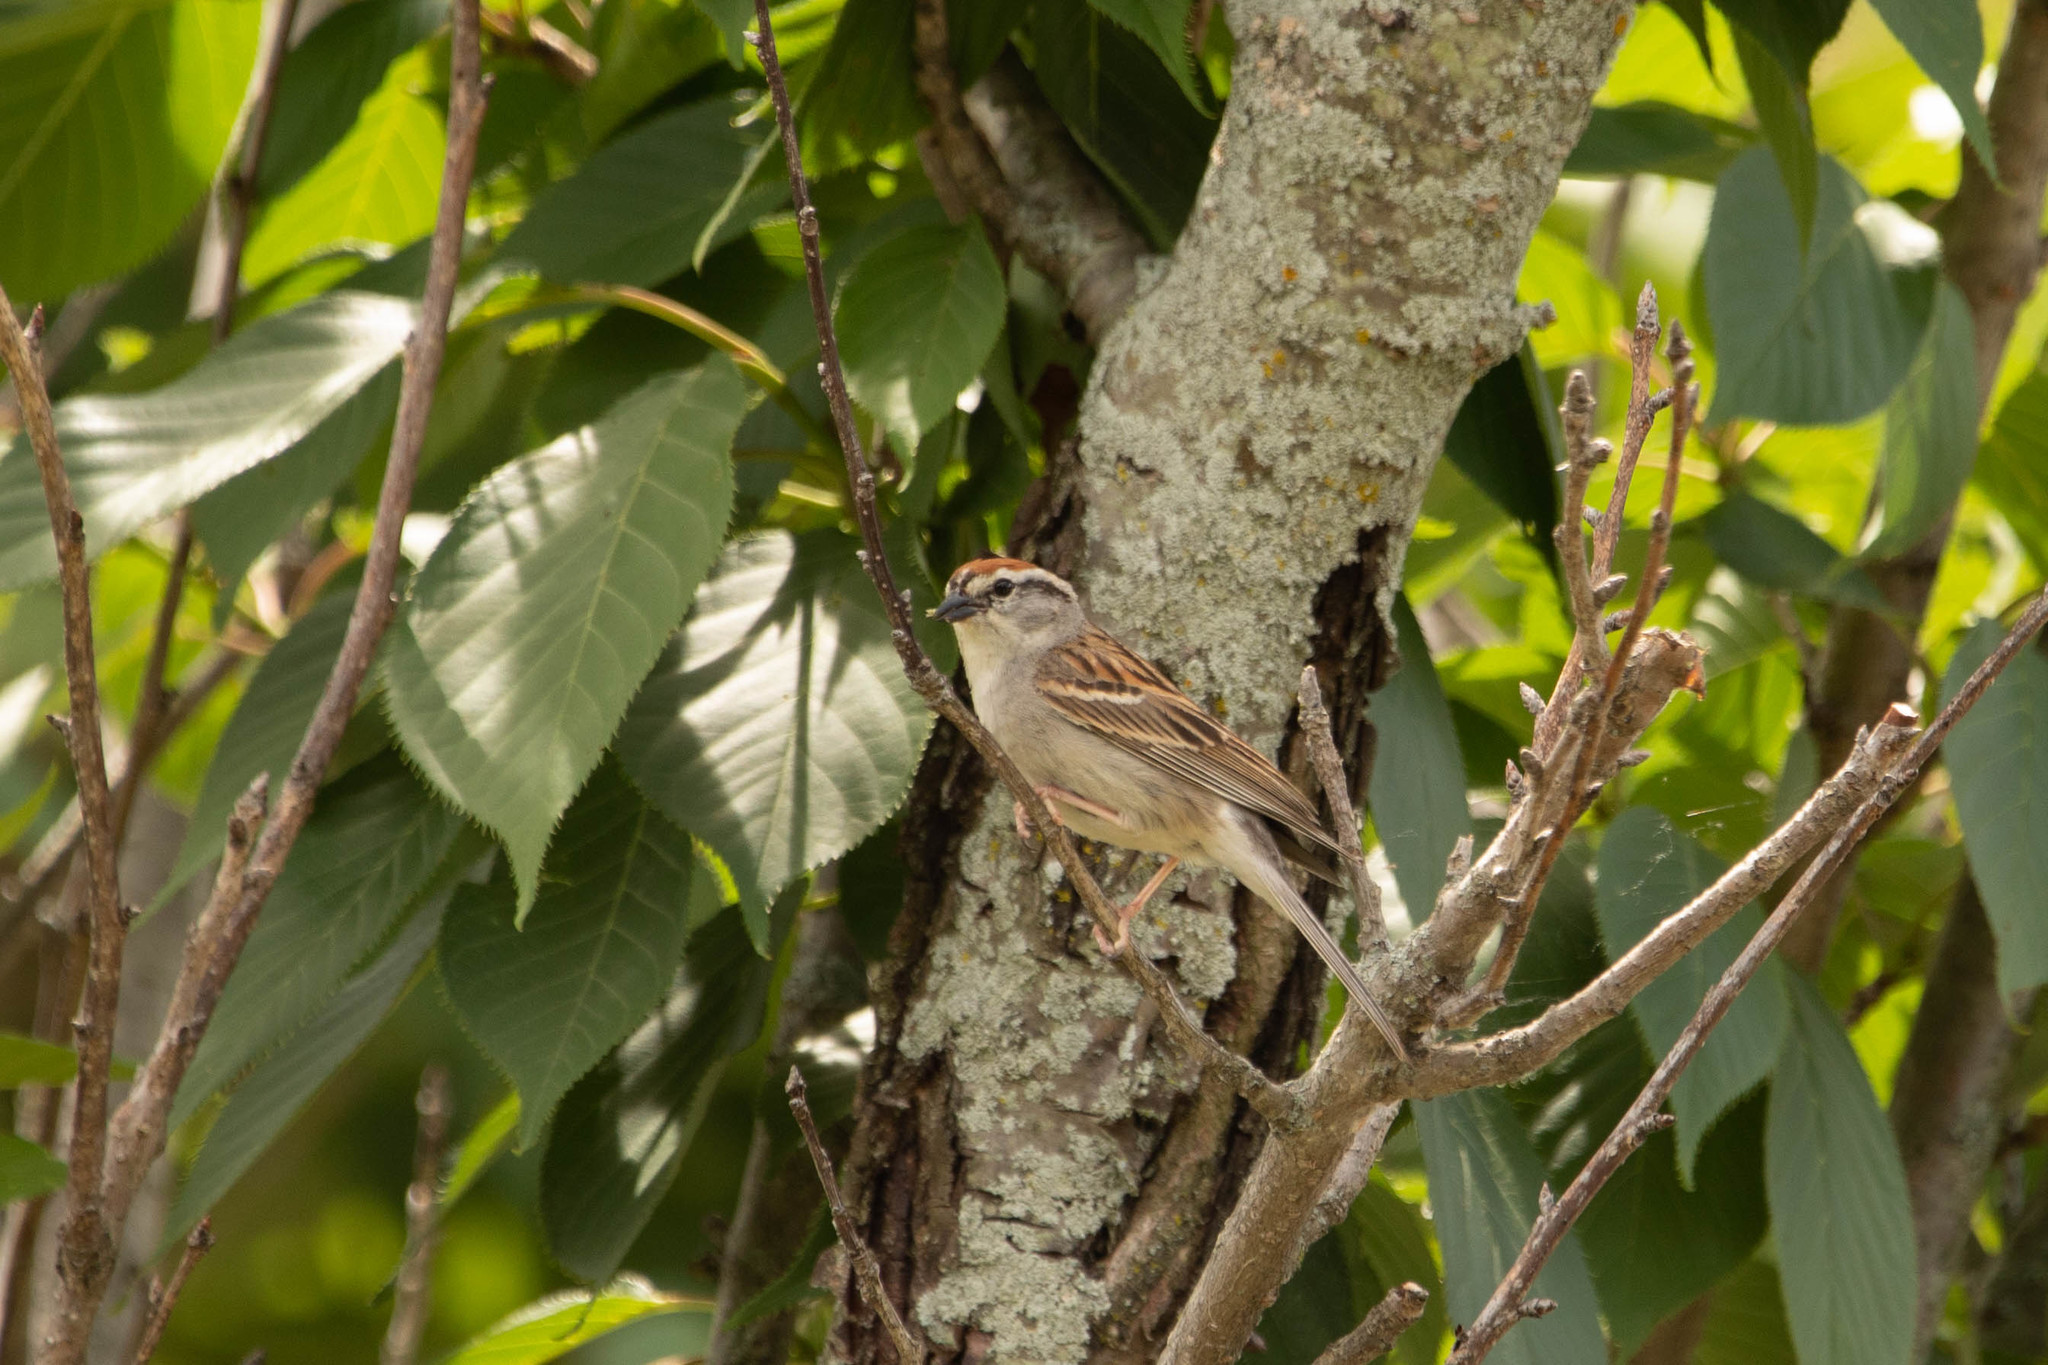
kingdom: Animalia
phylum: Chordata
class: Aves
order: Passeriformes
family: Passerellidae
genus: Spizella
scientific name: Spizella passerina
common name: Chipping sparrow
